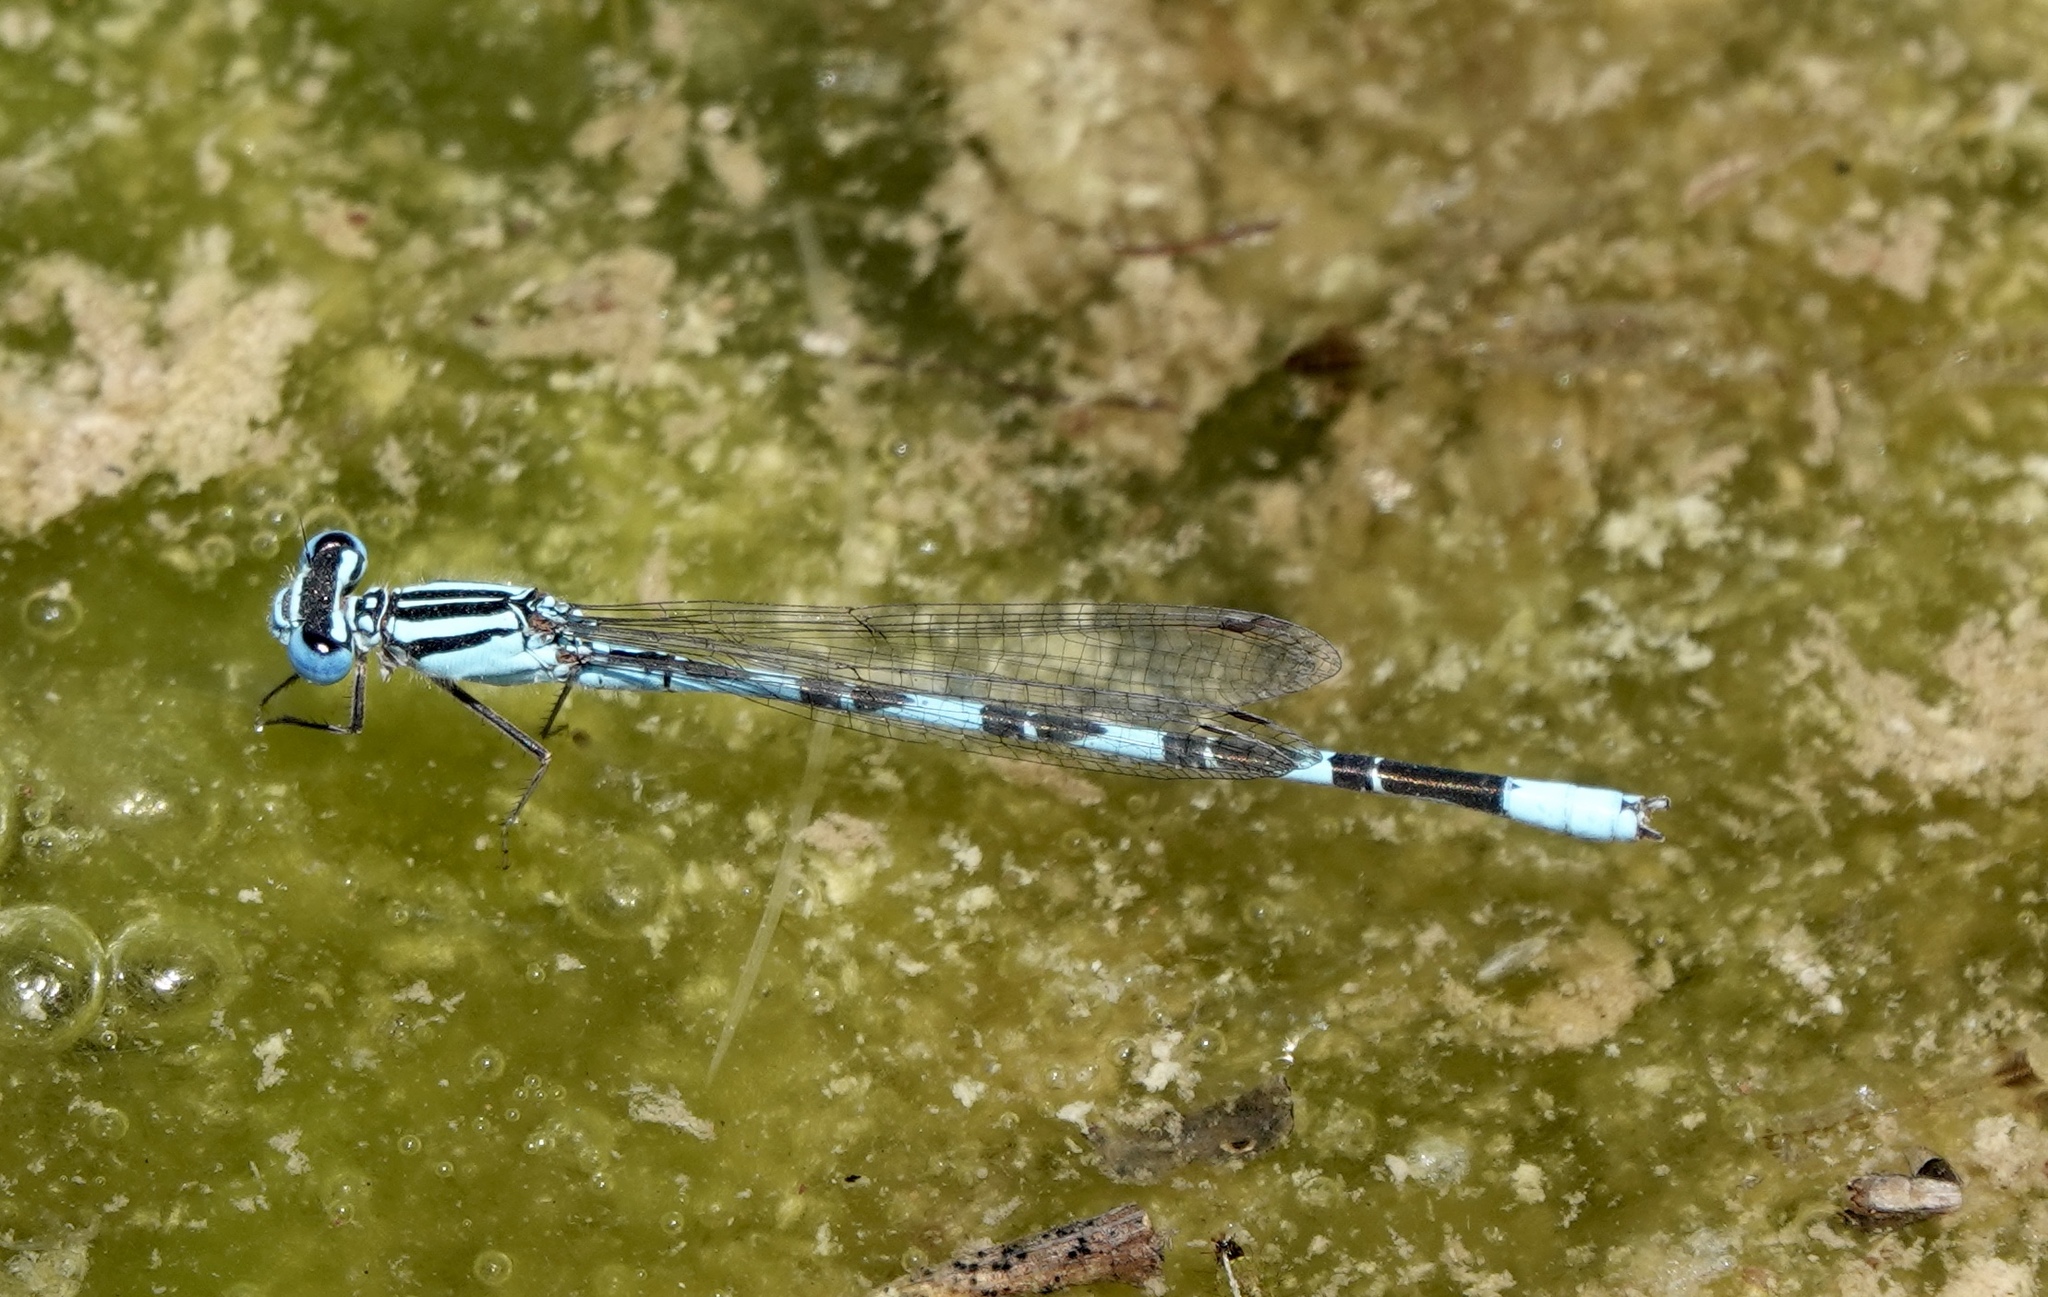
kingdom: Animalia
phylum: Arthropoda
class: Insecta
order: Odonata
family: Coenagrionidae
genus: Enallagma
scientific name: Enallagma eiseni
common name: Baja bluet
